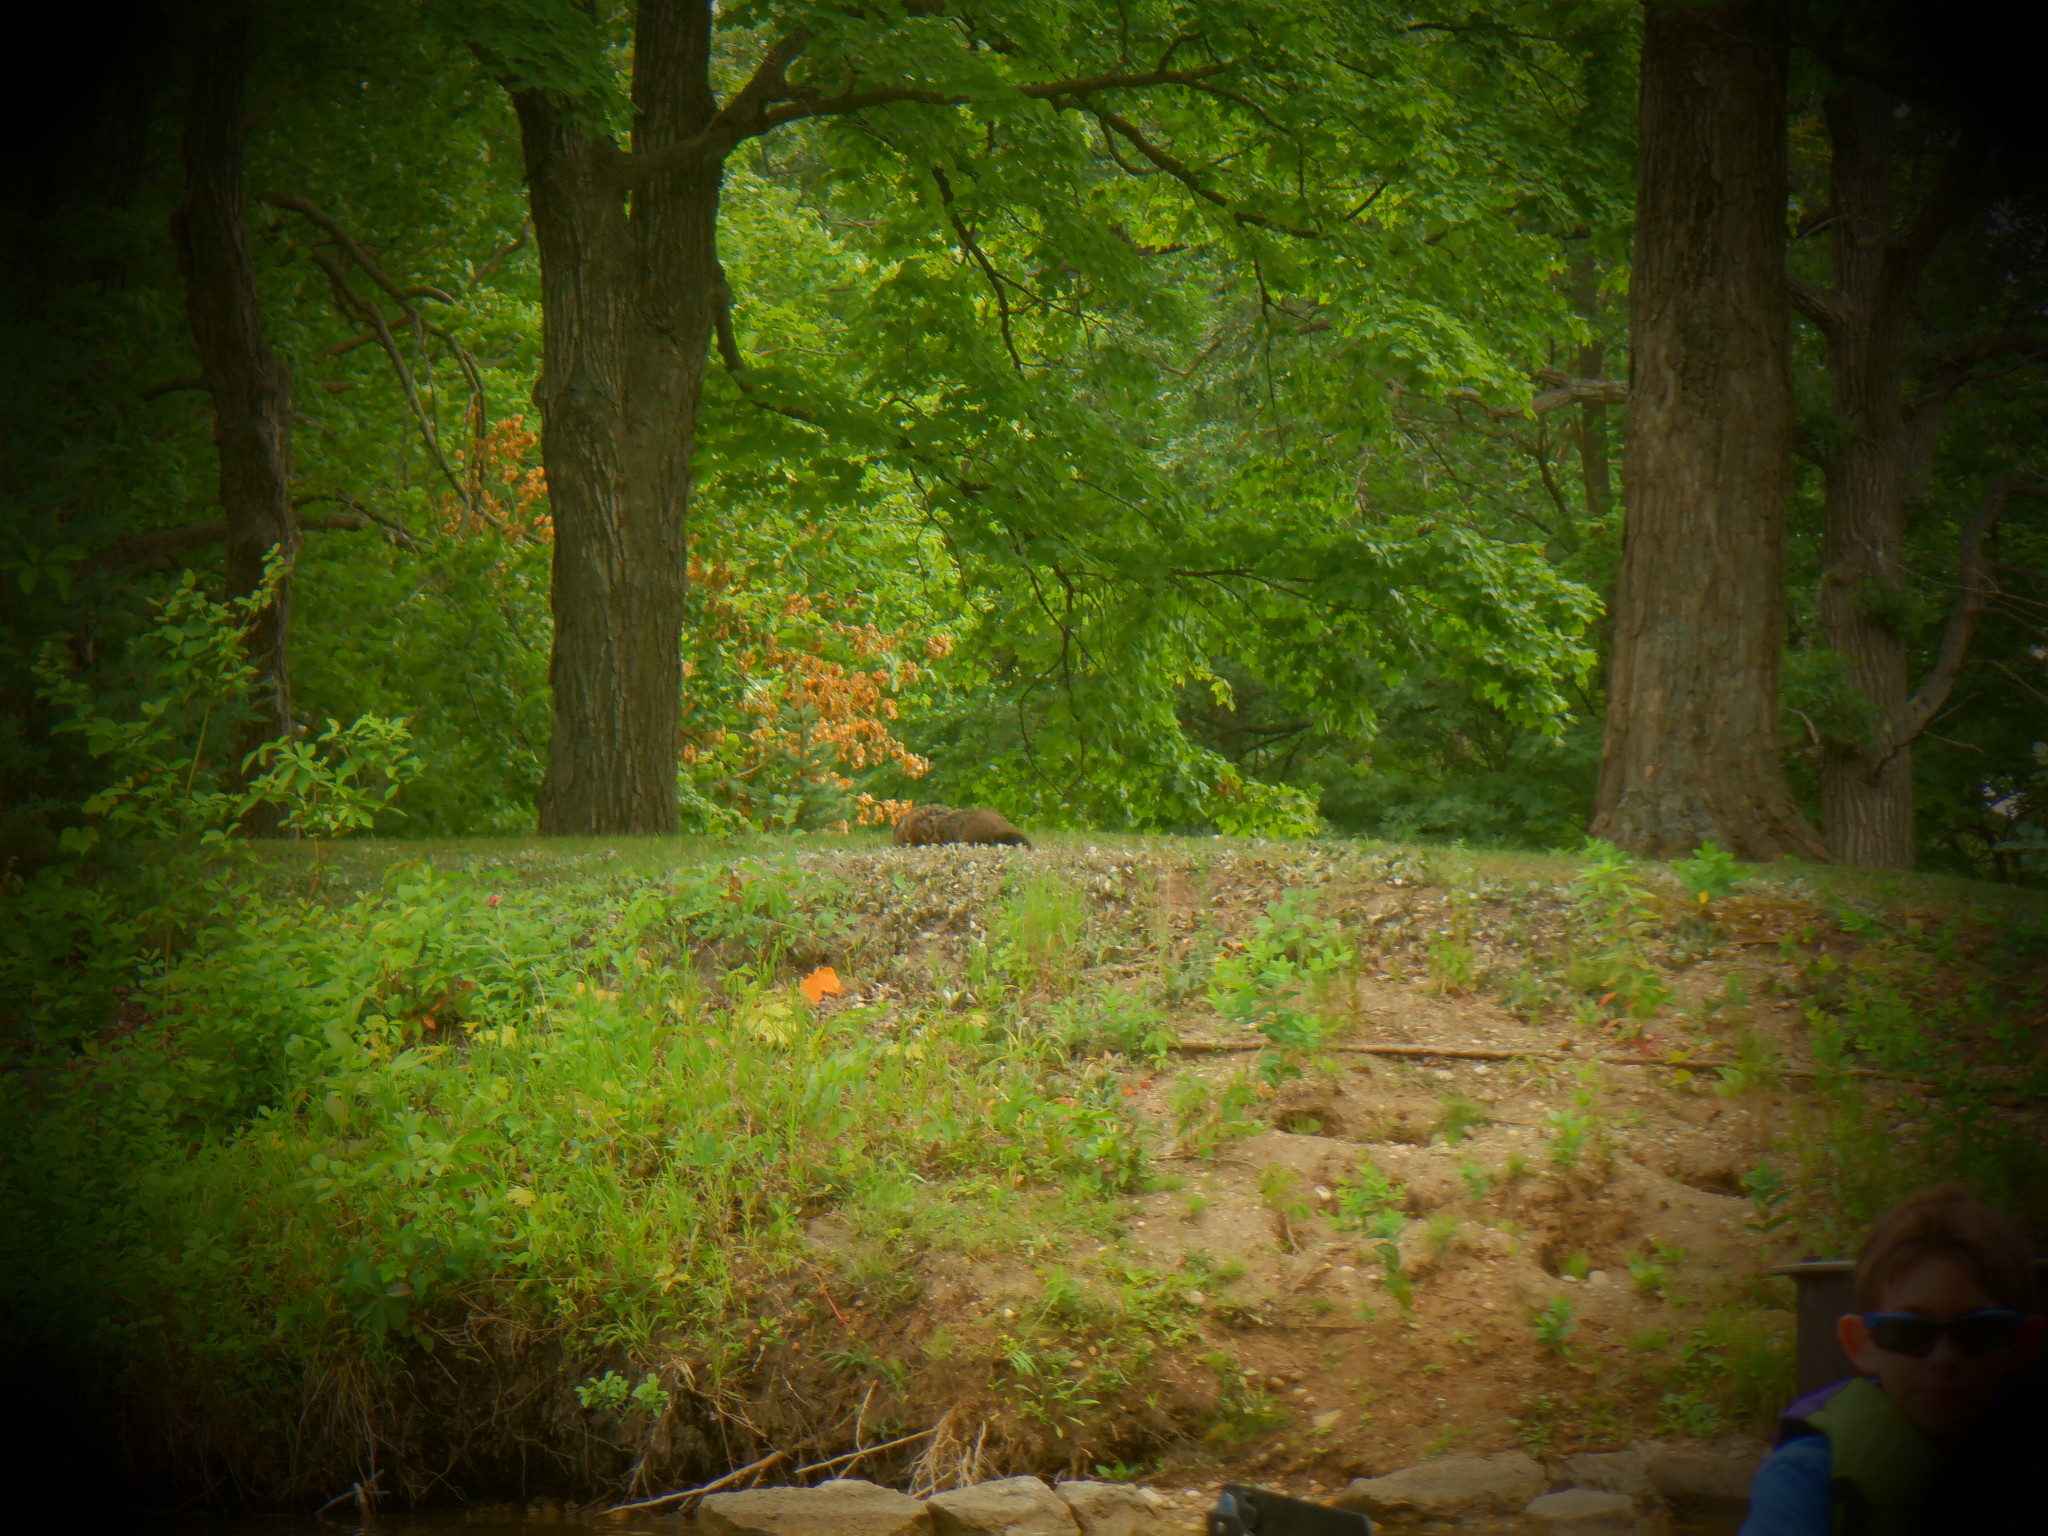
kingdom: Animalia
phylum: Chordata
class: Mammalia
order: Rodentia
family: Sciuridae
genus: Marmota
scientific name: Marmota monax
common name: Groundhog
